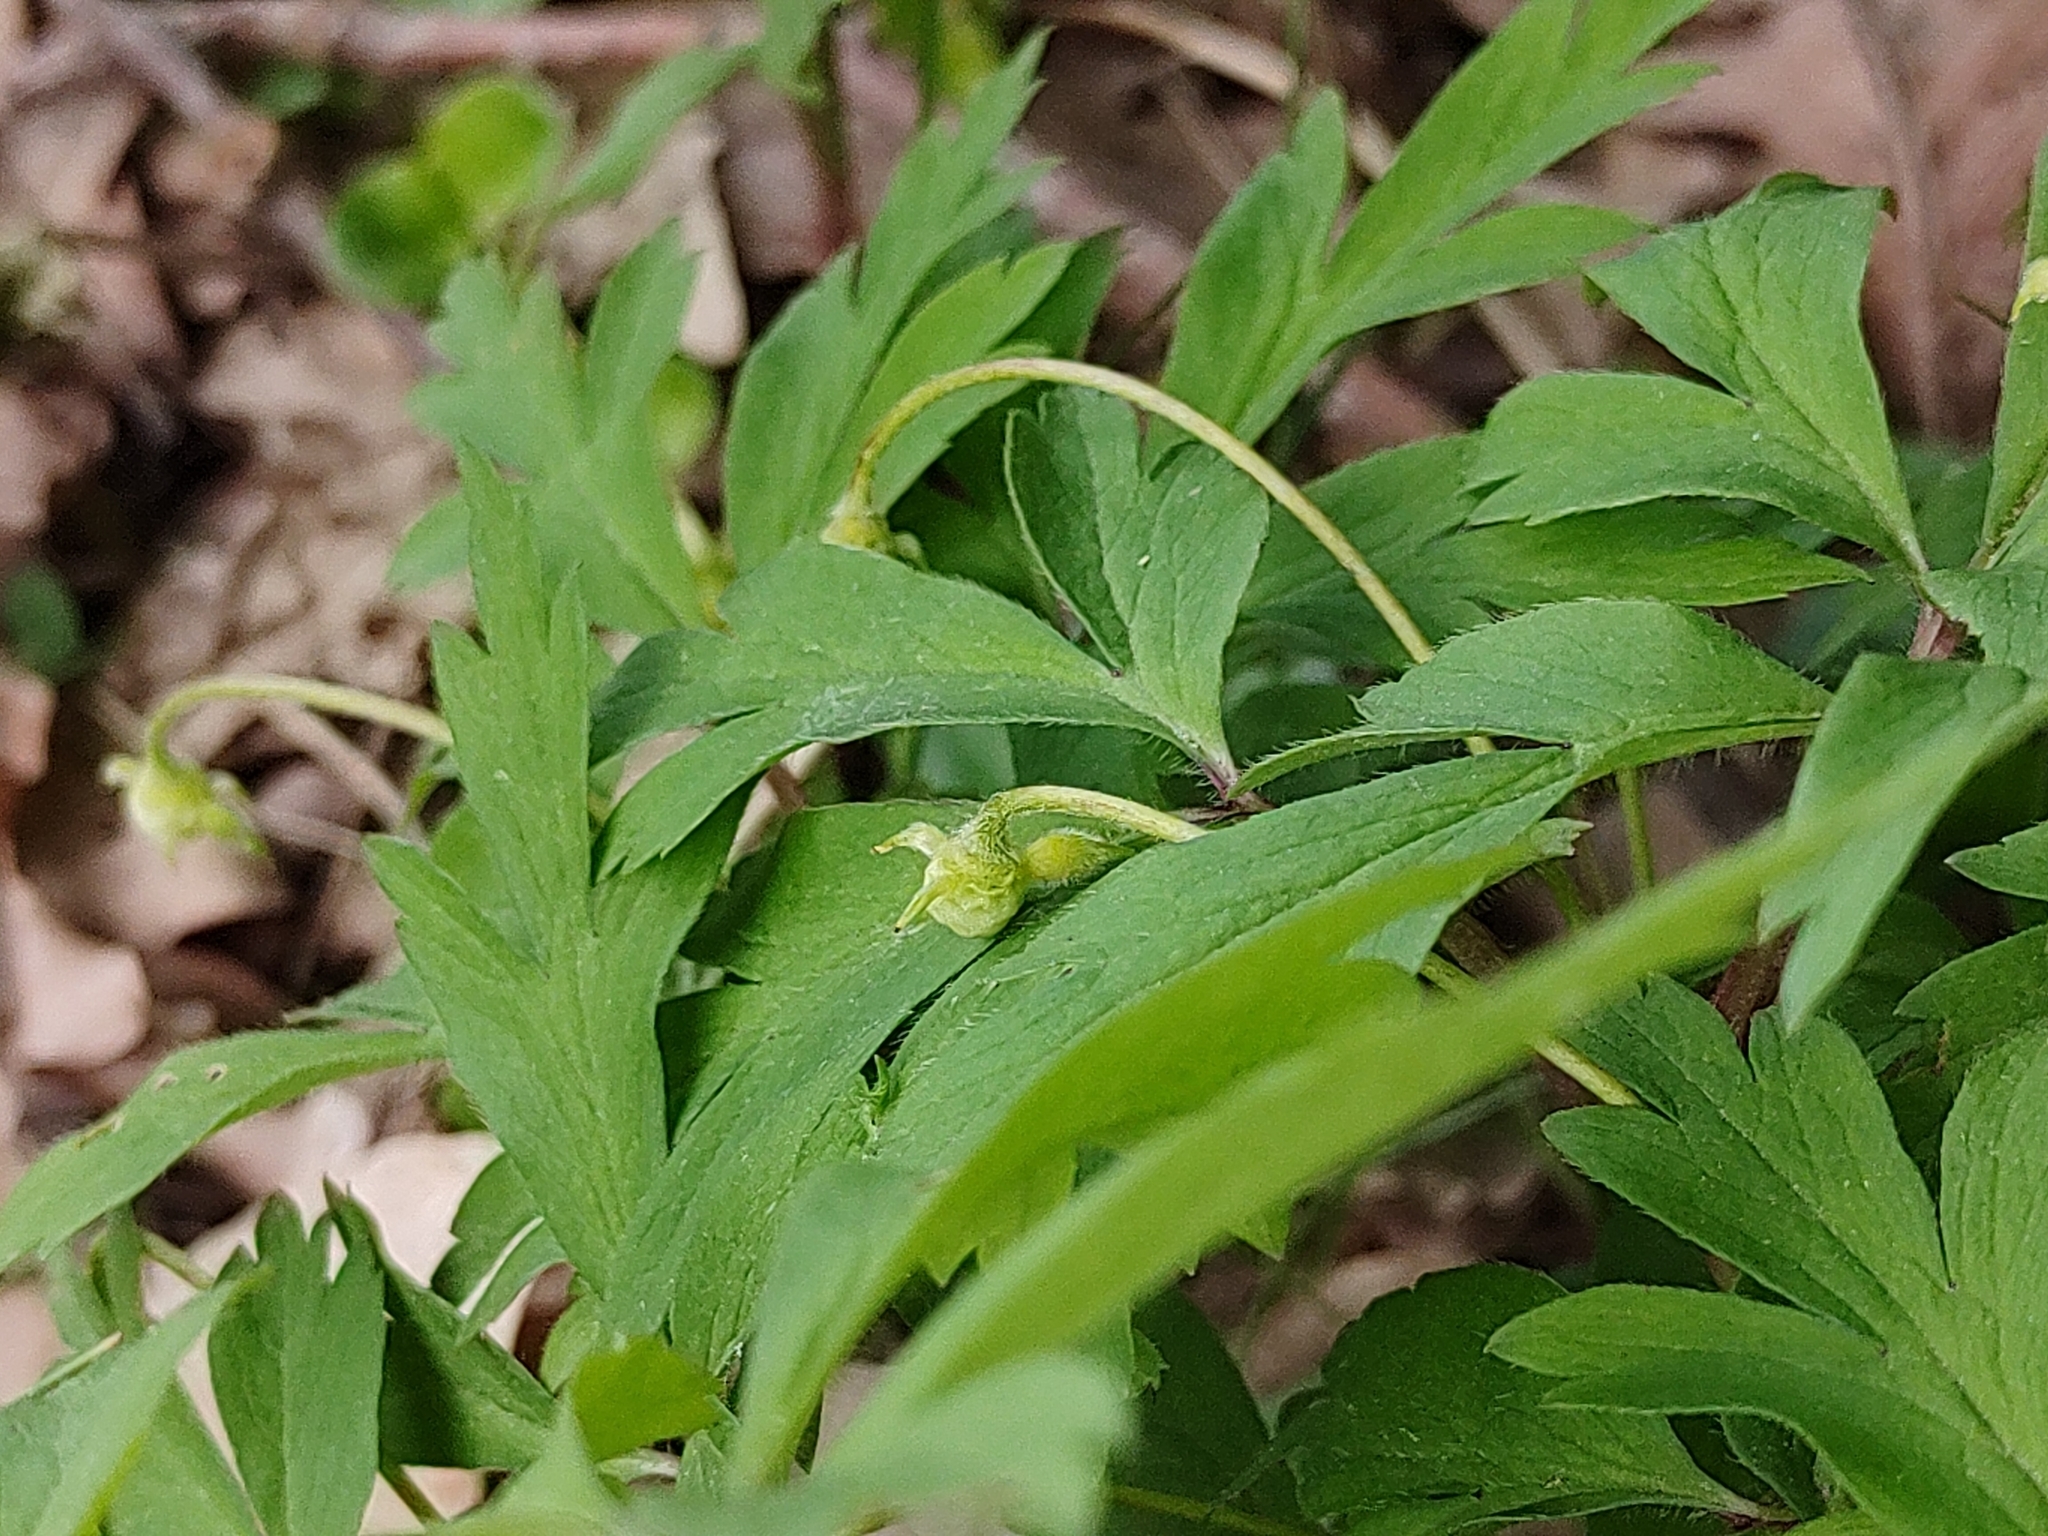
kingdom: Plantae
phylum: Tracheophyta
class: Magnoliopsida
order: Ranunculales
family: Ranunculaceae
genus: Anemone
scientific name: Anemone nemorosa
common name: Wood anemone
